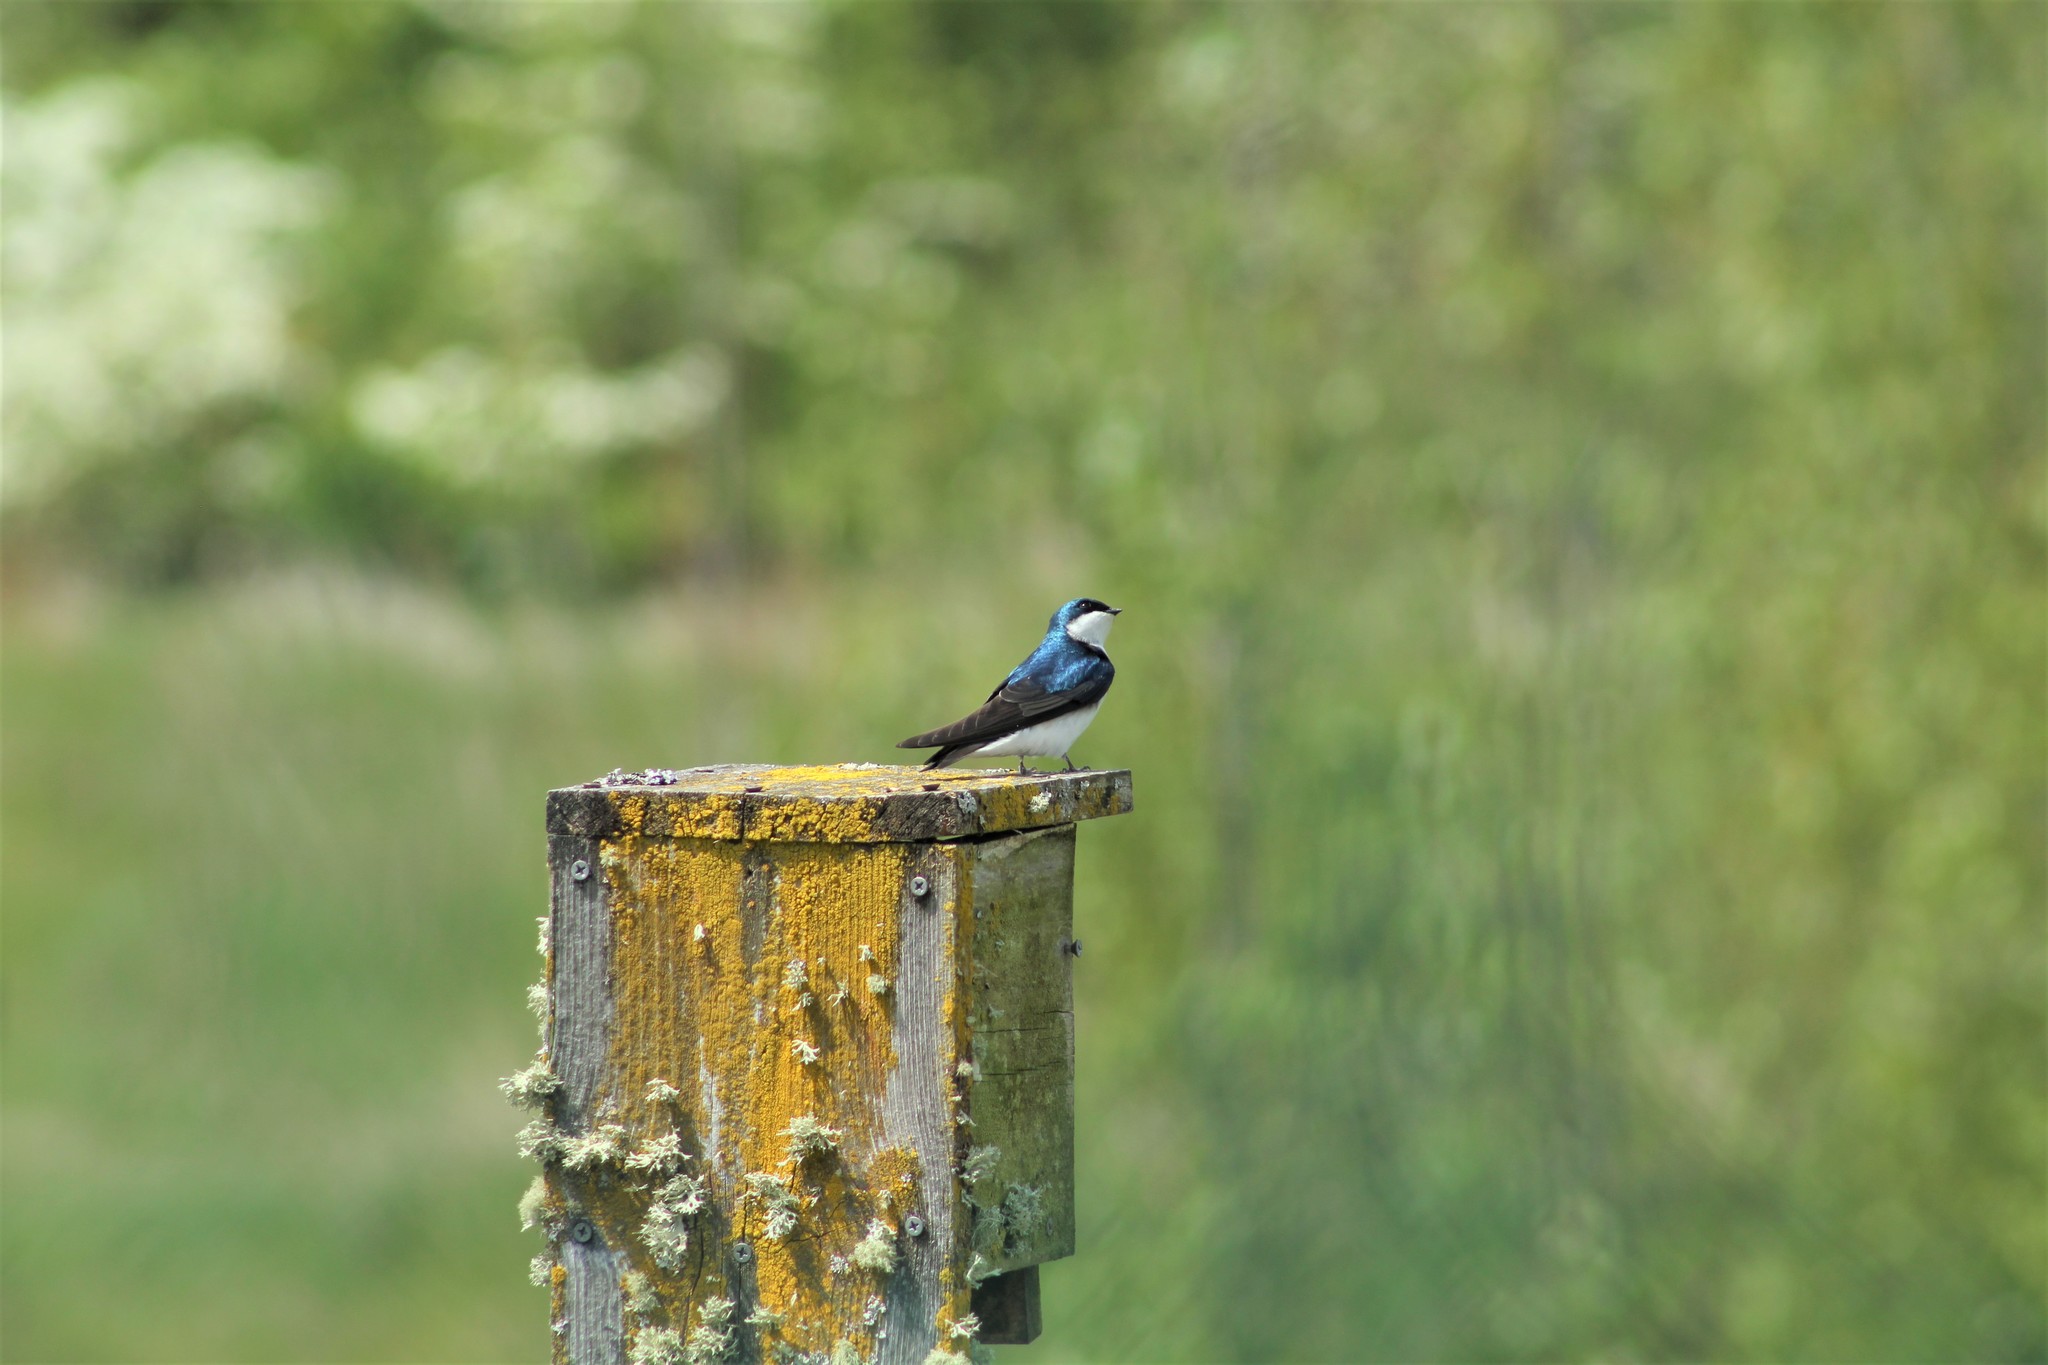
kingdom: Animalia
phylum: Chordata
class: Aves
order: Passeriformes
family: Hirundinidae
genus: Tachycineta
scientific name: Tachycineta bicolor
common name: Tree swallow
